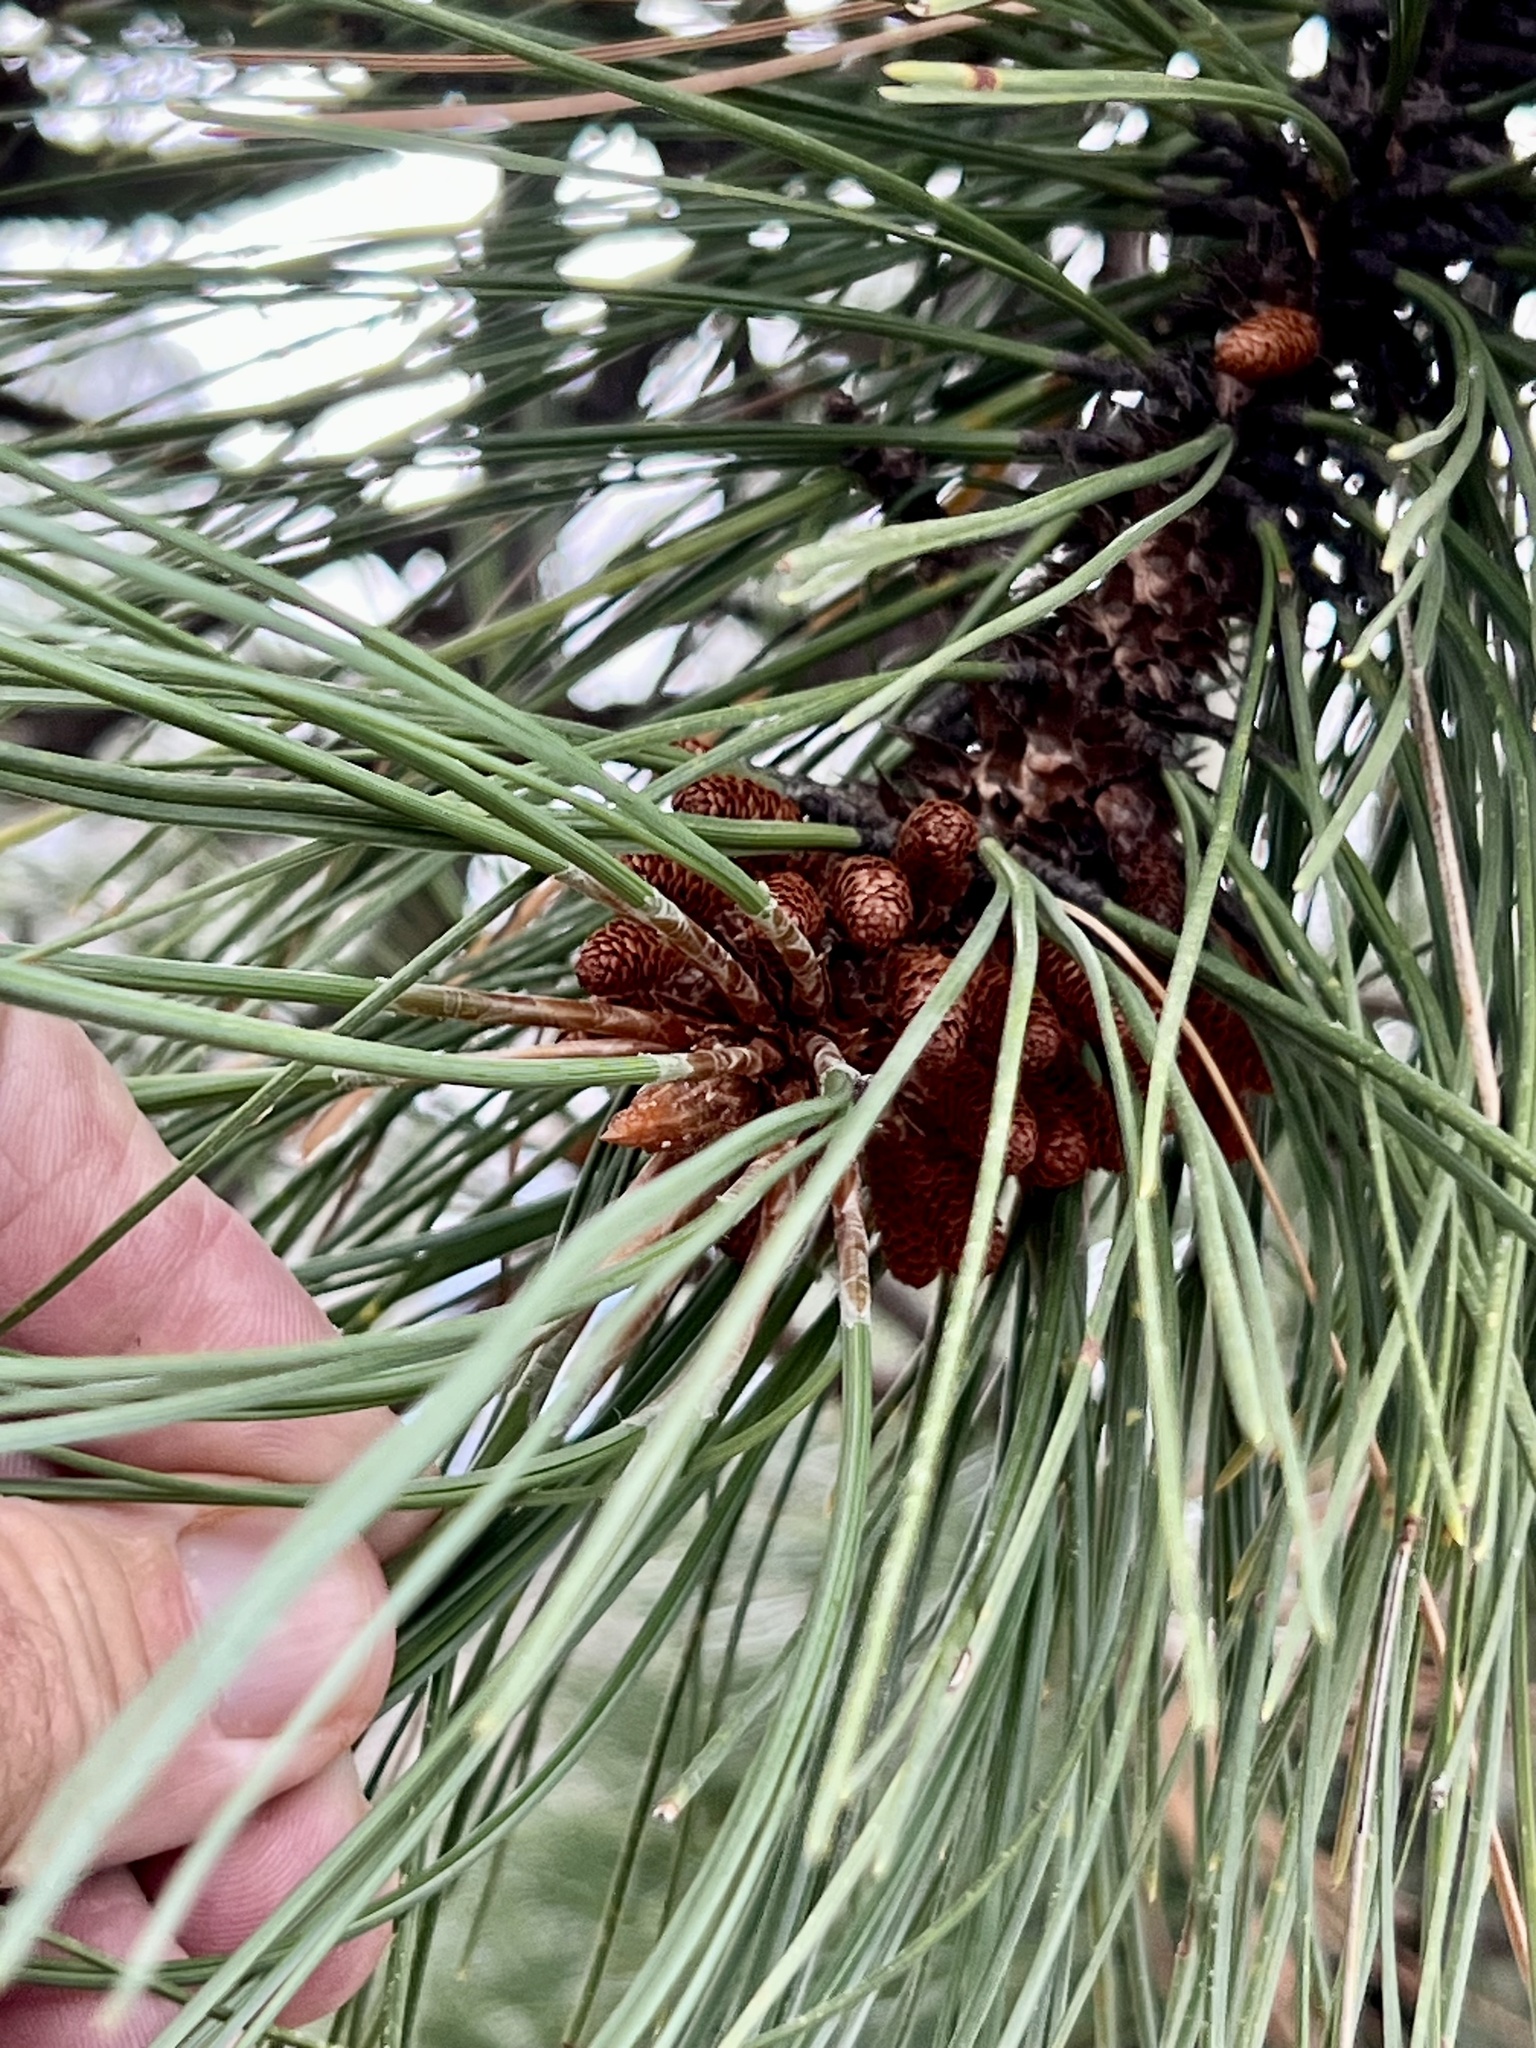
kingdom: Plantae
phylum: Tracheophyta
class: Pinopsida
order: Pinales
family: Pinaceae
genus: Pinus
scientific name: Pinus ponderosa
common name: Western yellow-pine
